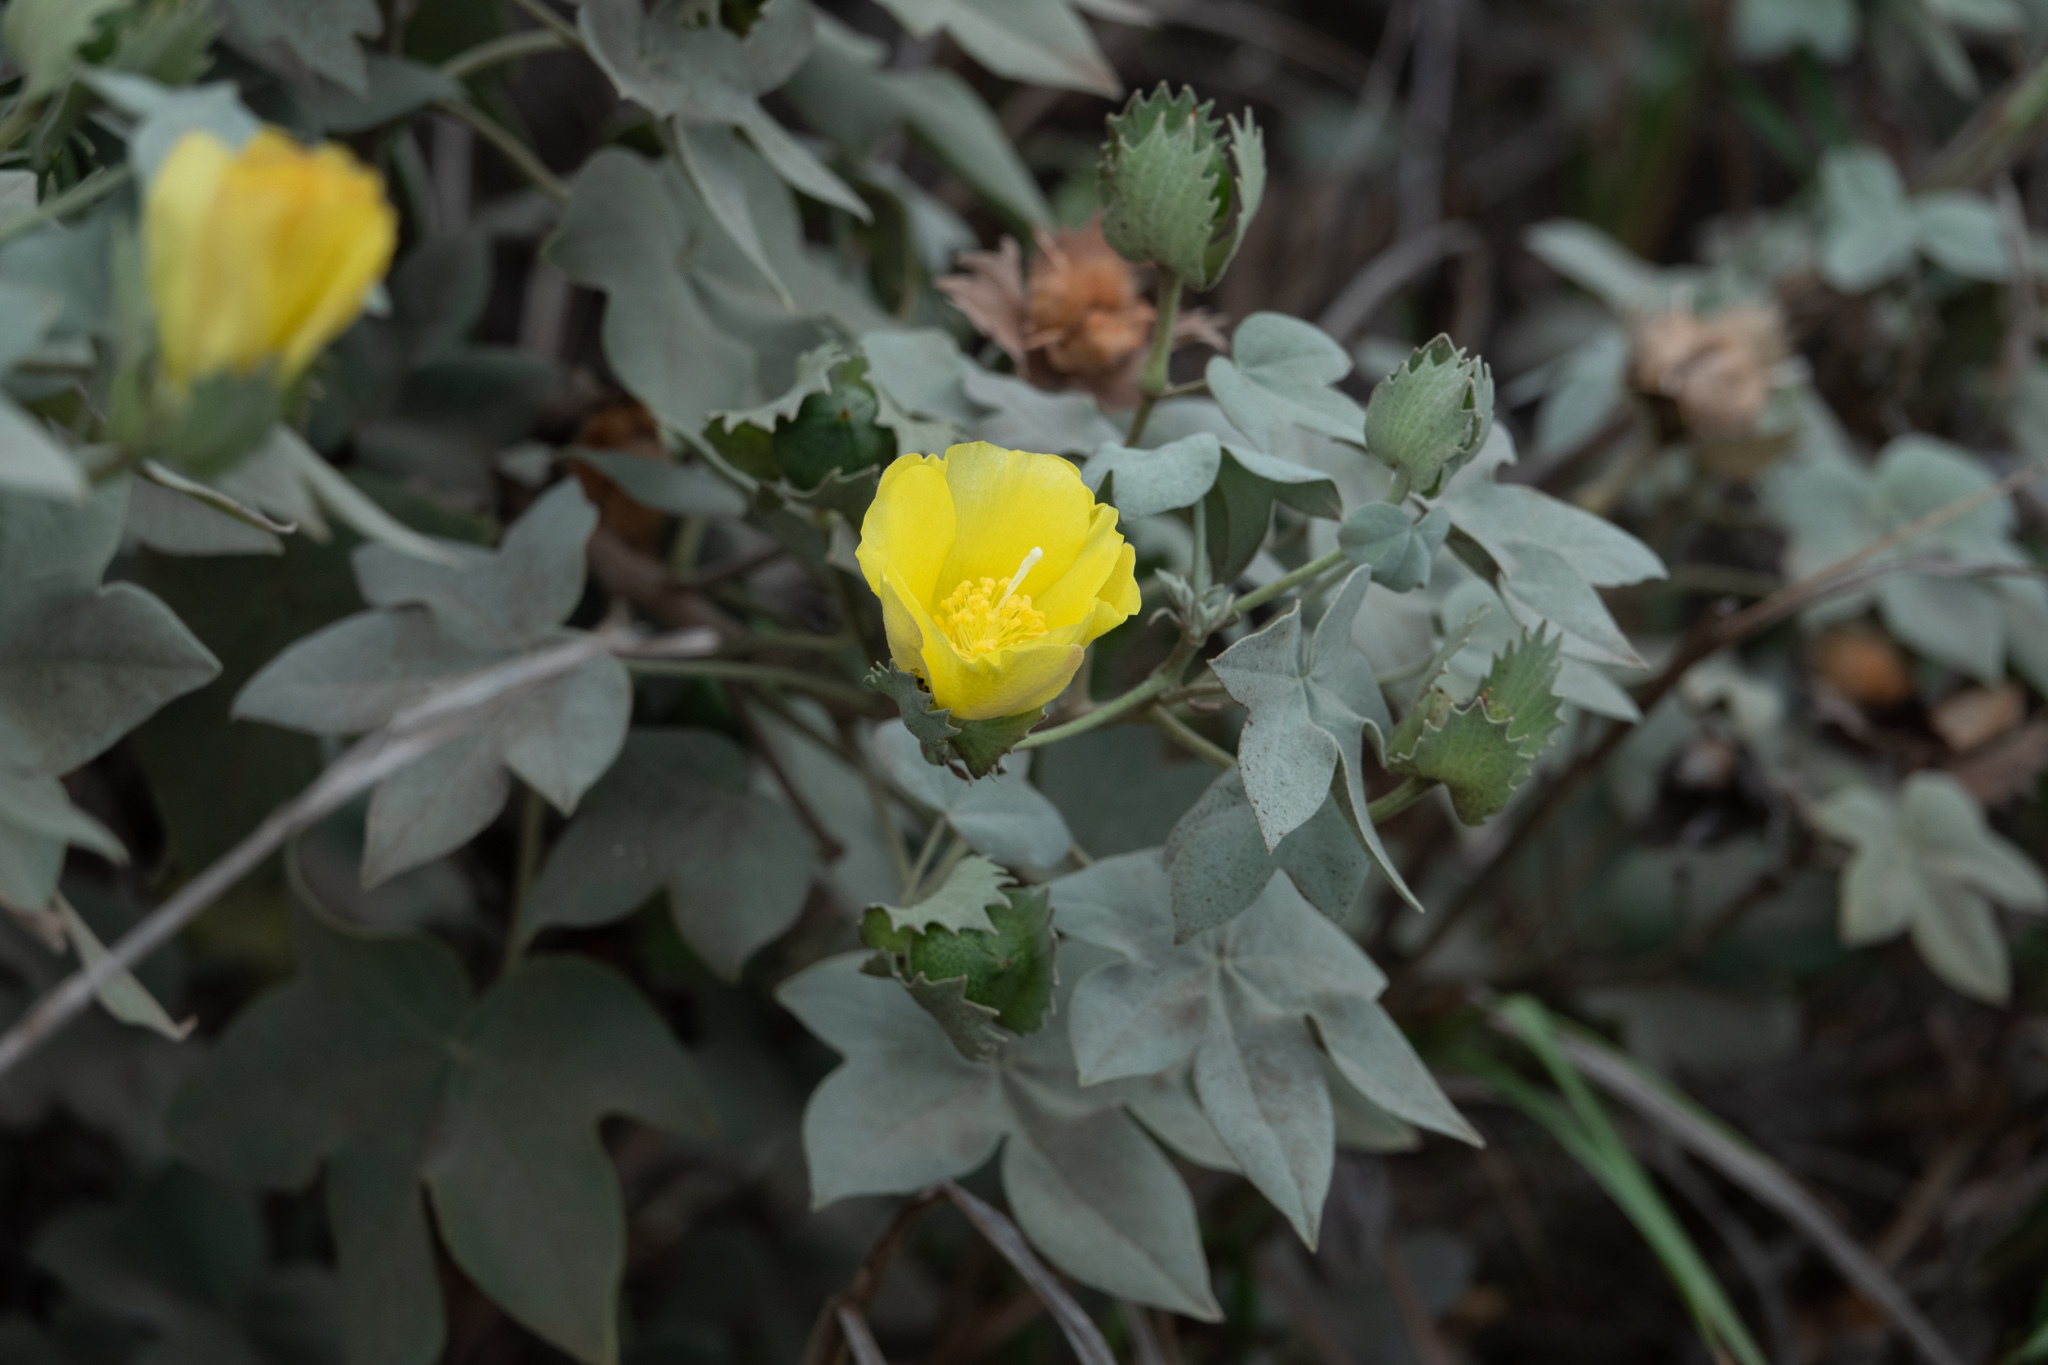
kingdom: Plantae
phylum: Tracheophyta
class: Magnoliopsida
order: Malvales
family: Malvaceae
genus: Gossypium
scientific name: Gossypium tomentosum
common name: Hawaiian cotton
